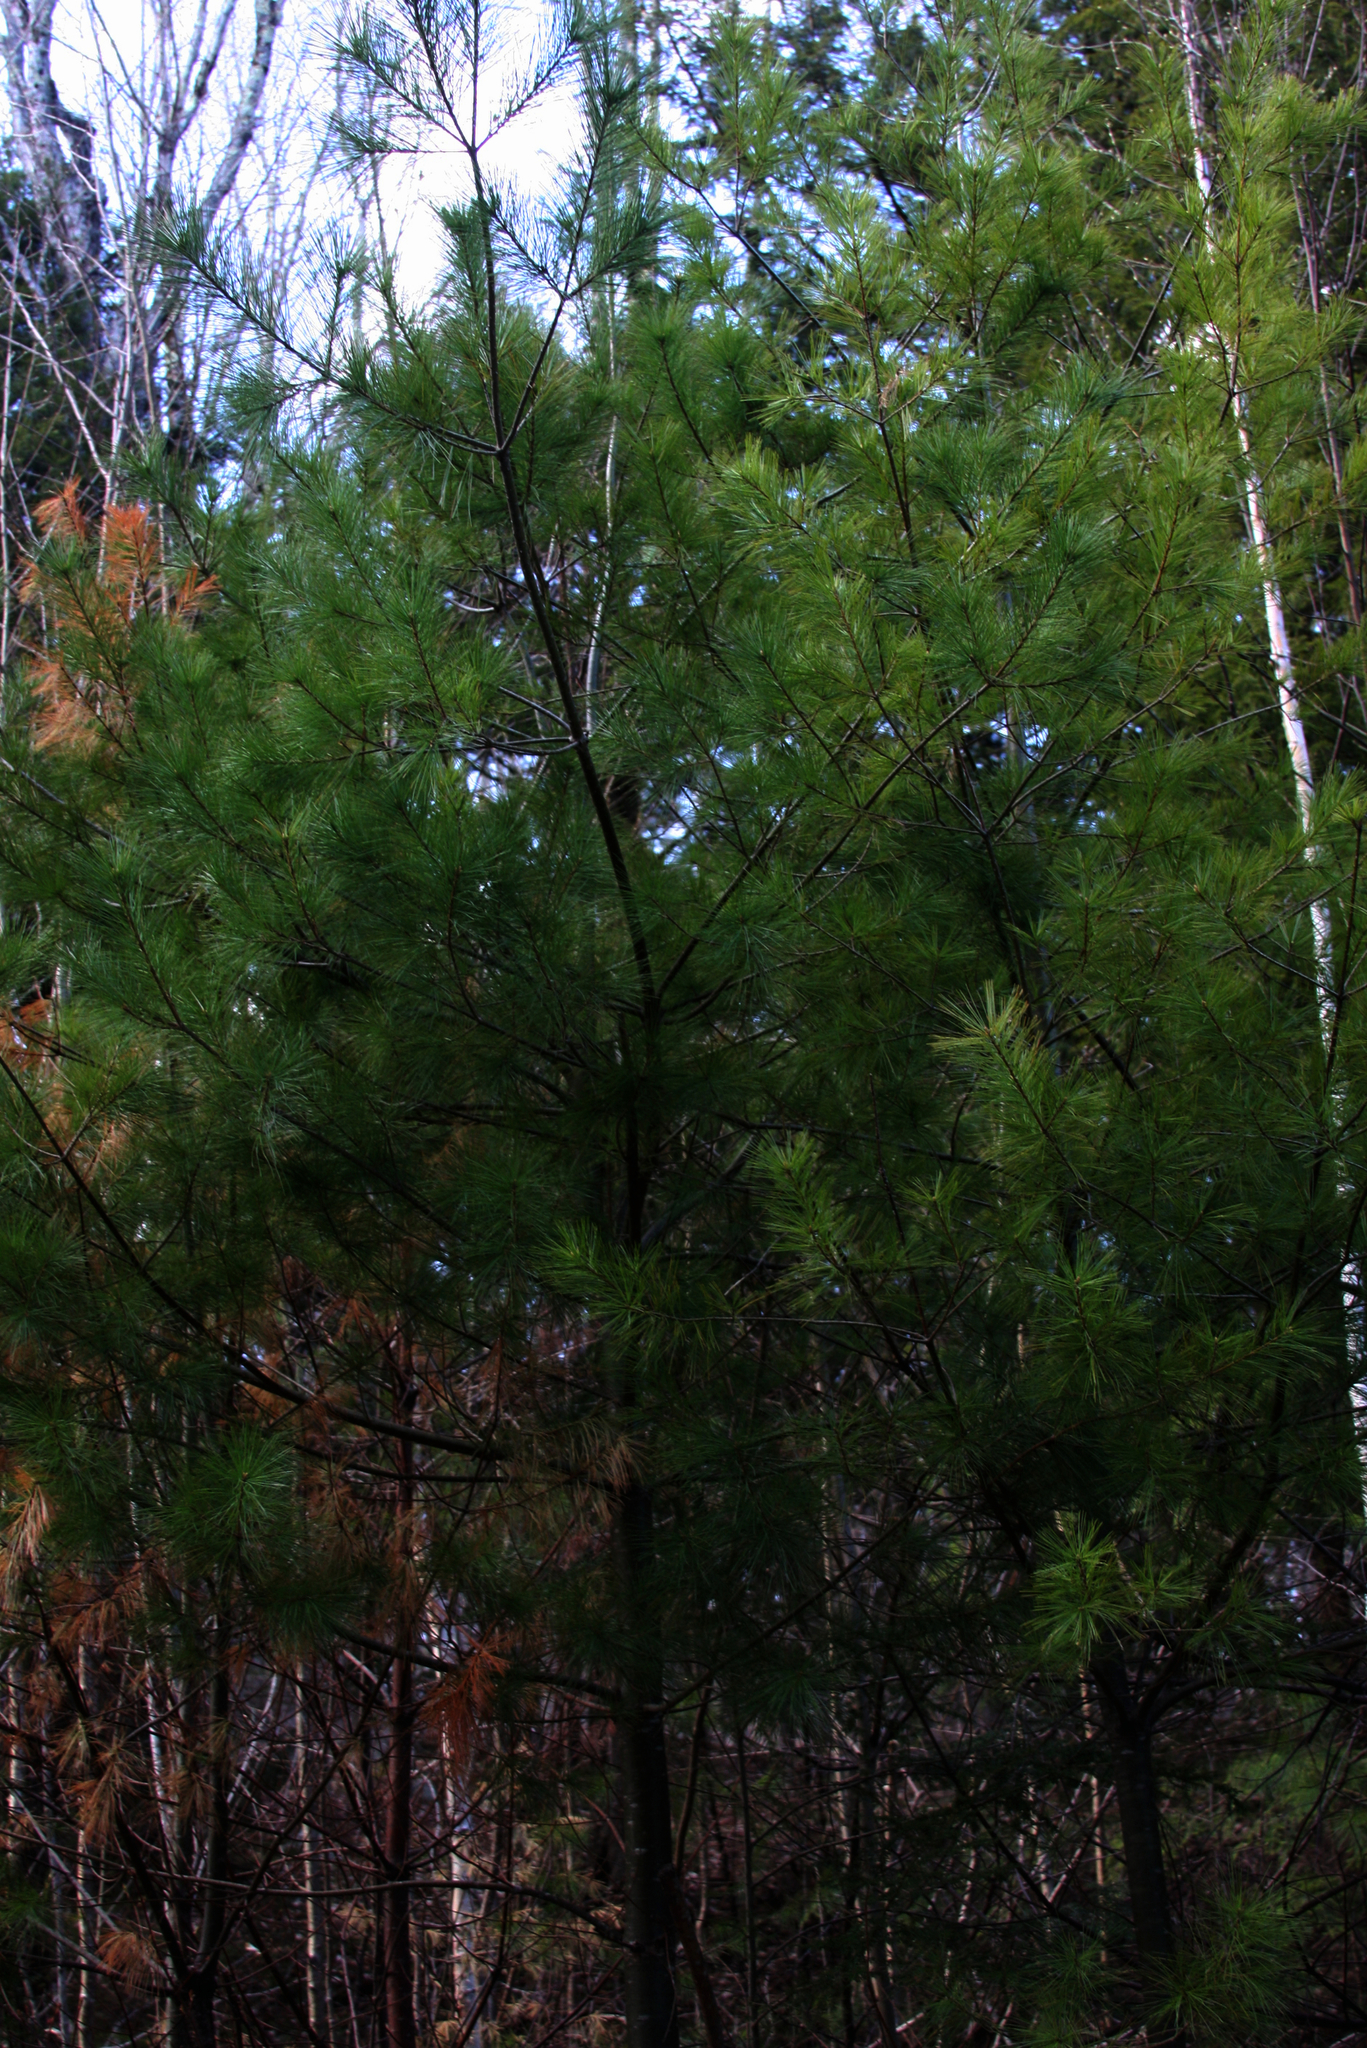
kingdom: Plantae
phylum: Tracheophyta
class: Pinopsida
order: Pinales
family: Pinaceae
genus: Pinus
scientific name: Pinus strobus
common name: Weymouth pine
